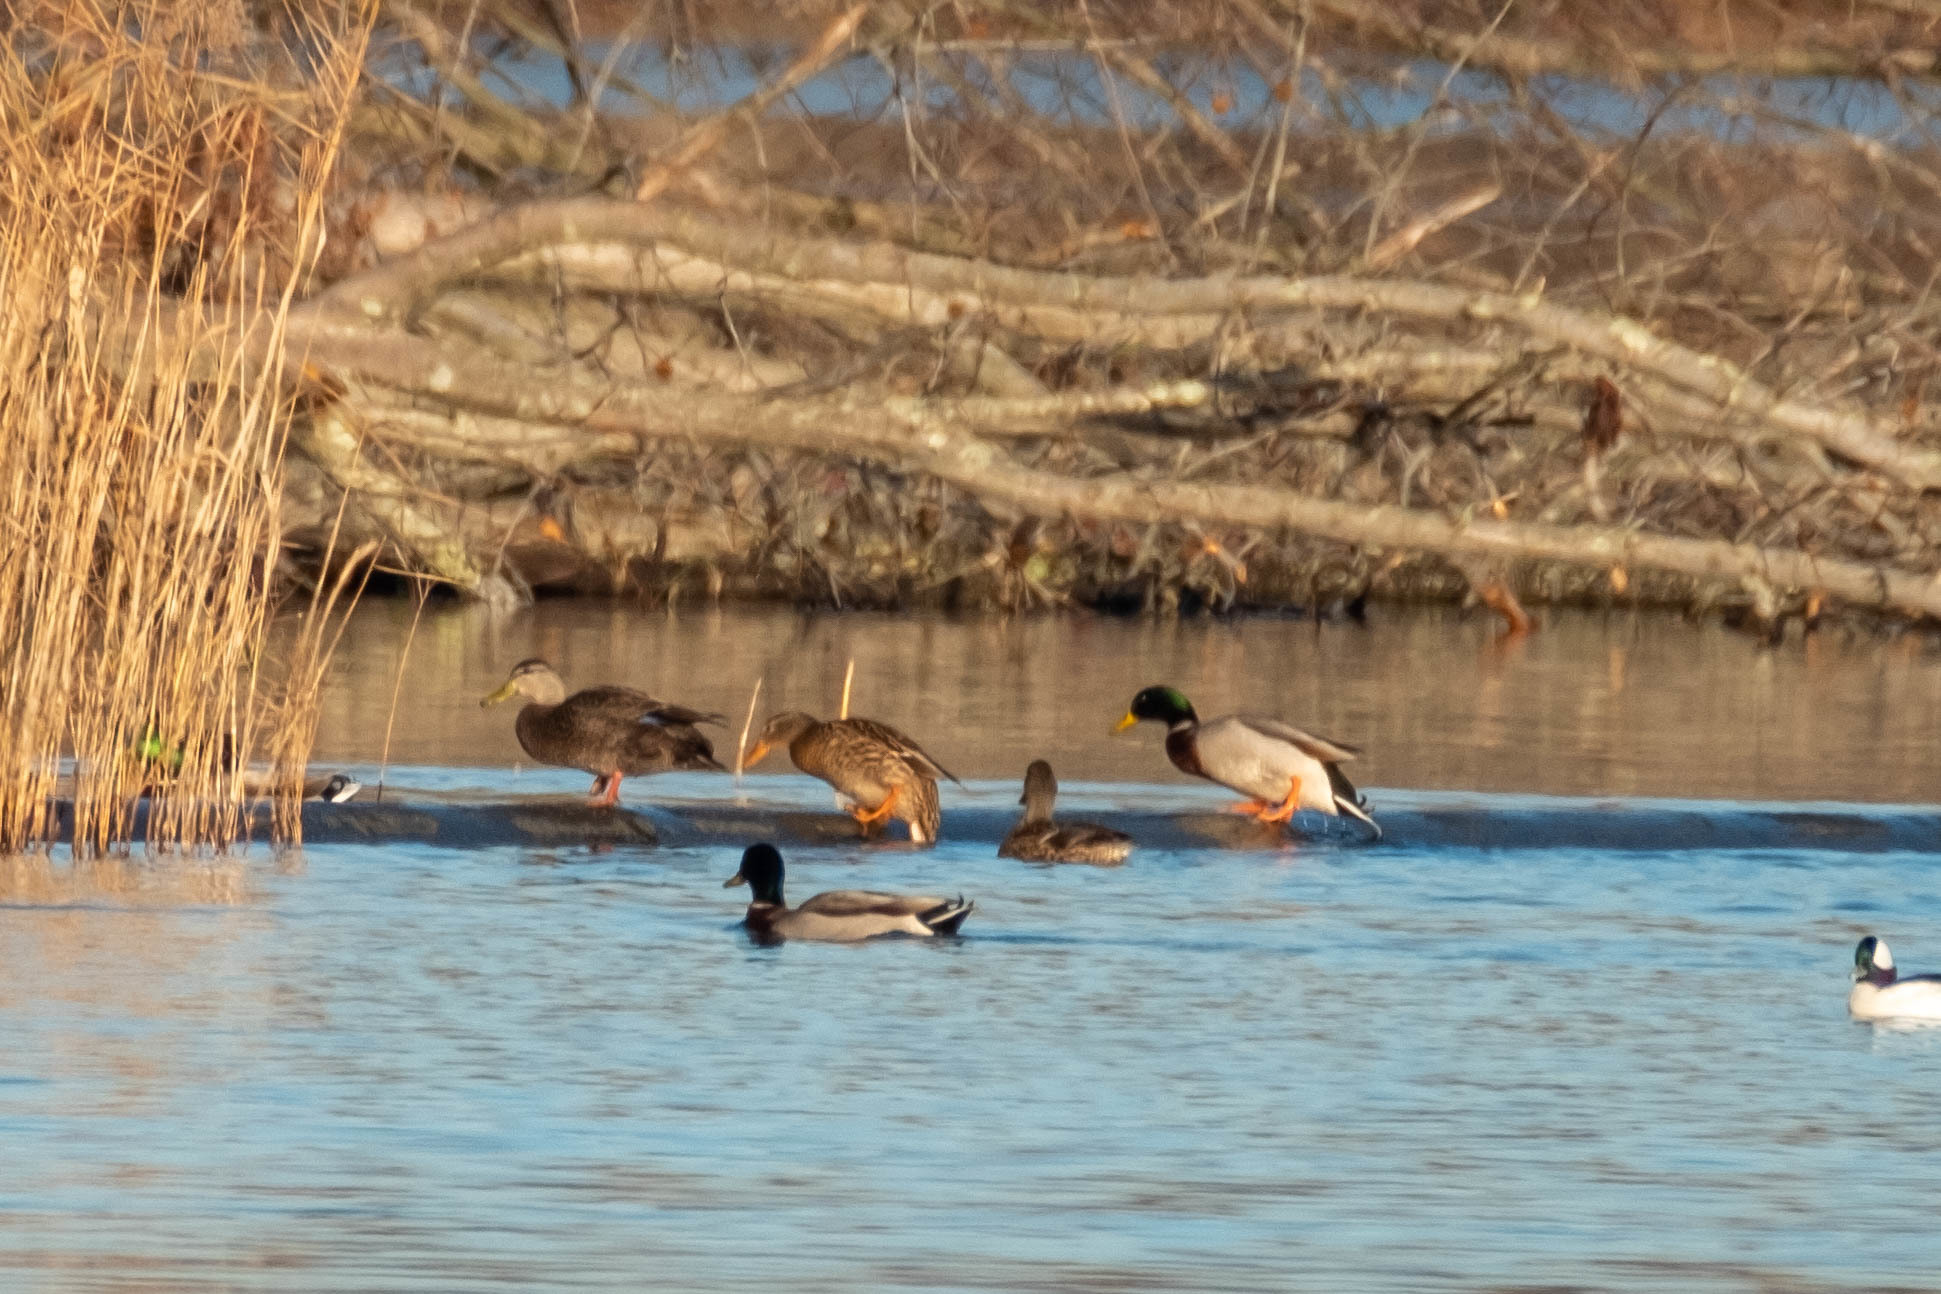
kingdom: Animalia
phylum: Chordata
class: Aves
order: Anseriformes
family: Anatidae
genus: Anas
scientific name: Anas rubripes
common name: American black duck
